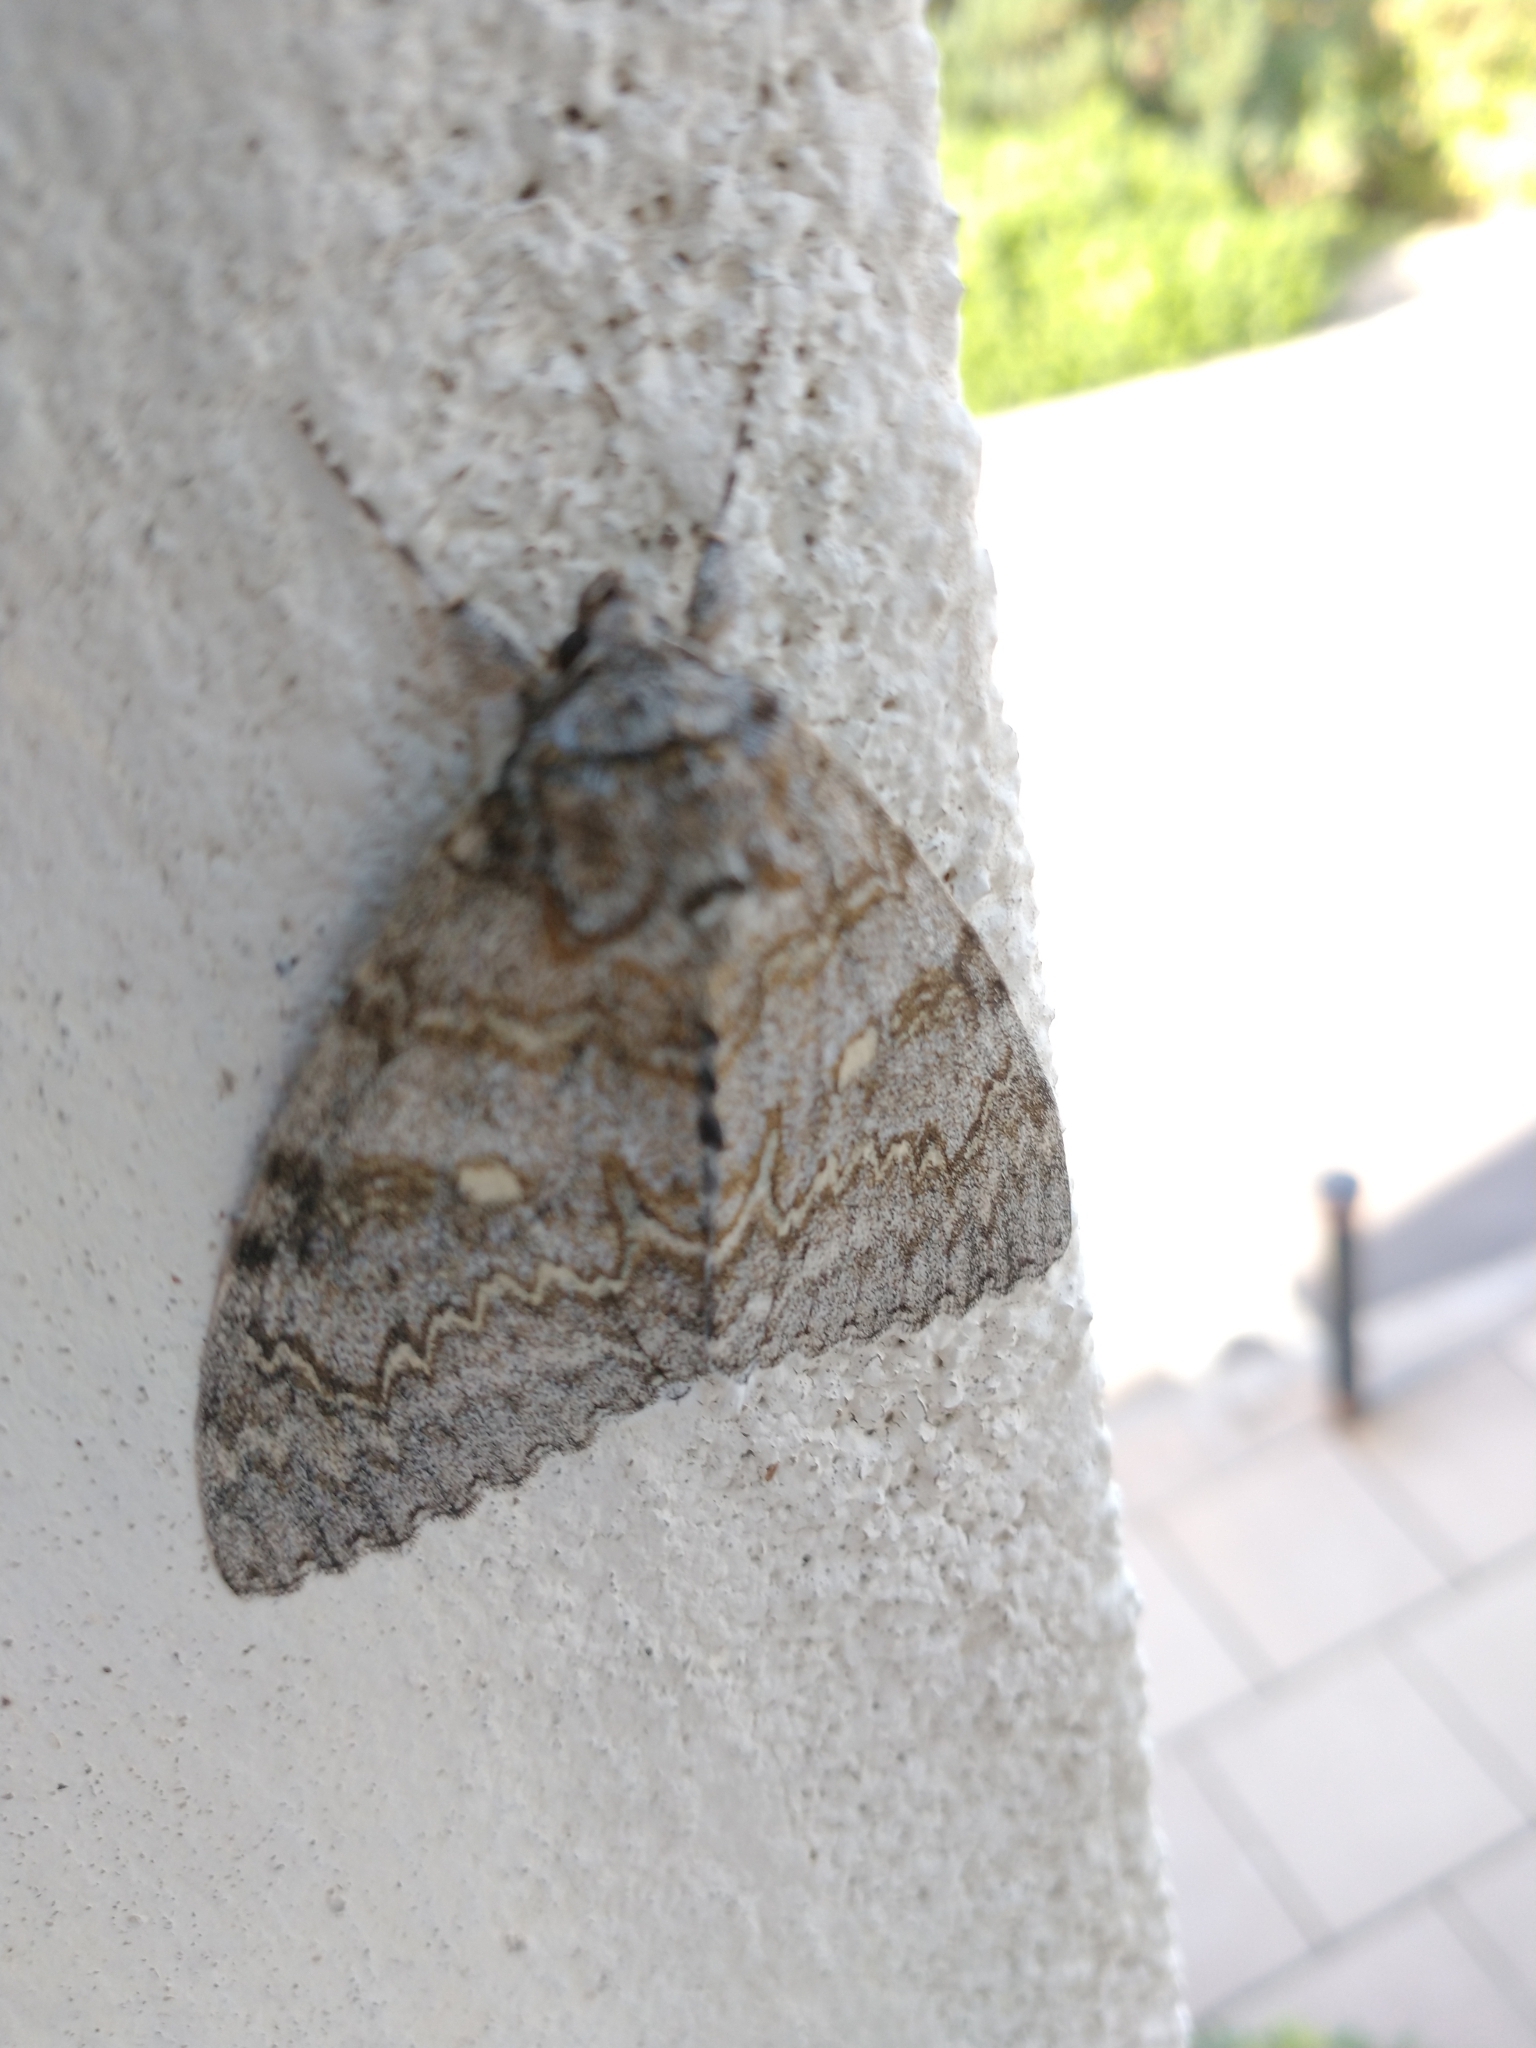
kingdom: Animalia
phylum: Arthropoda
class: Insecta
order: Lepidoptera
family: Erebidae
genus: Catocala
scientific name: Catocala fraxini
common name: Clifden nonpareil
